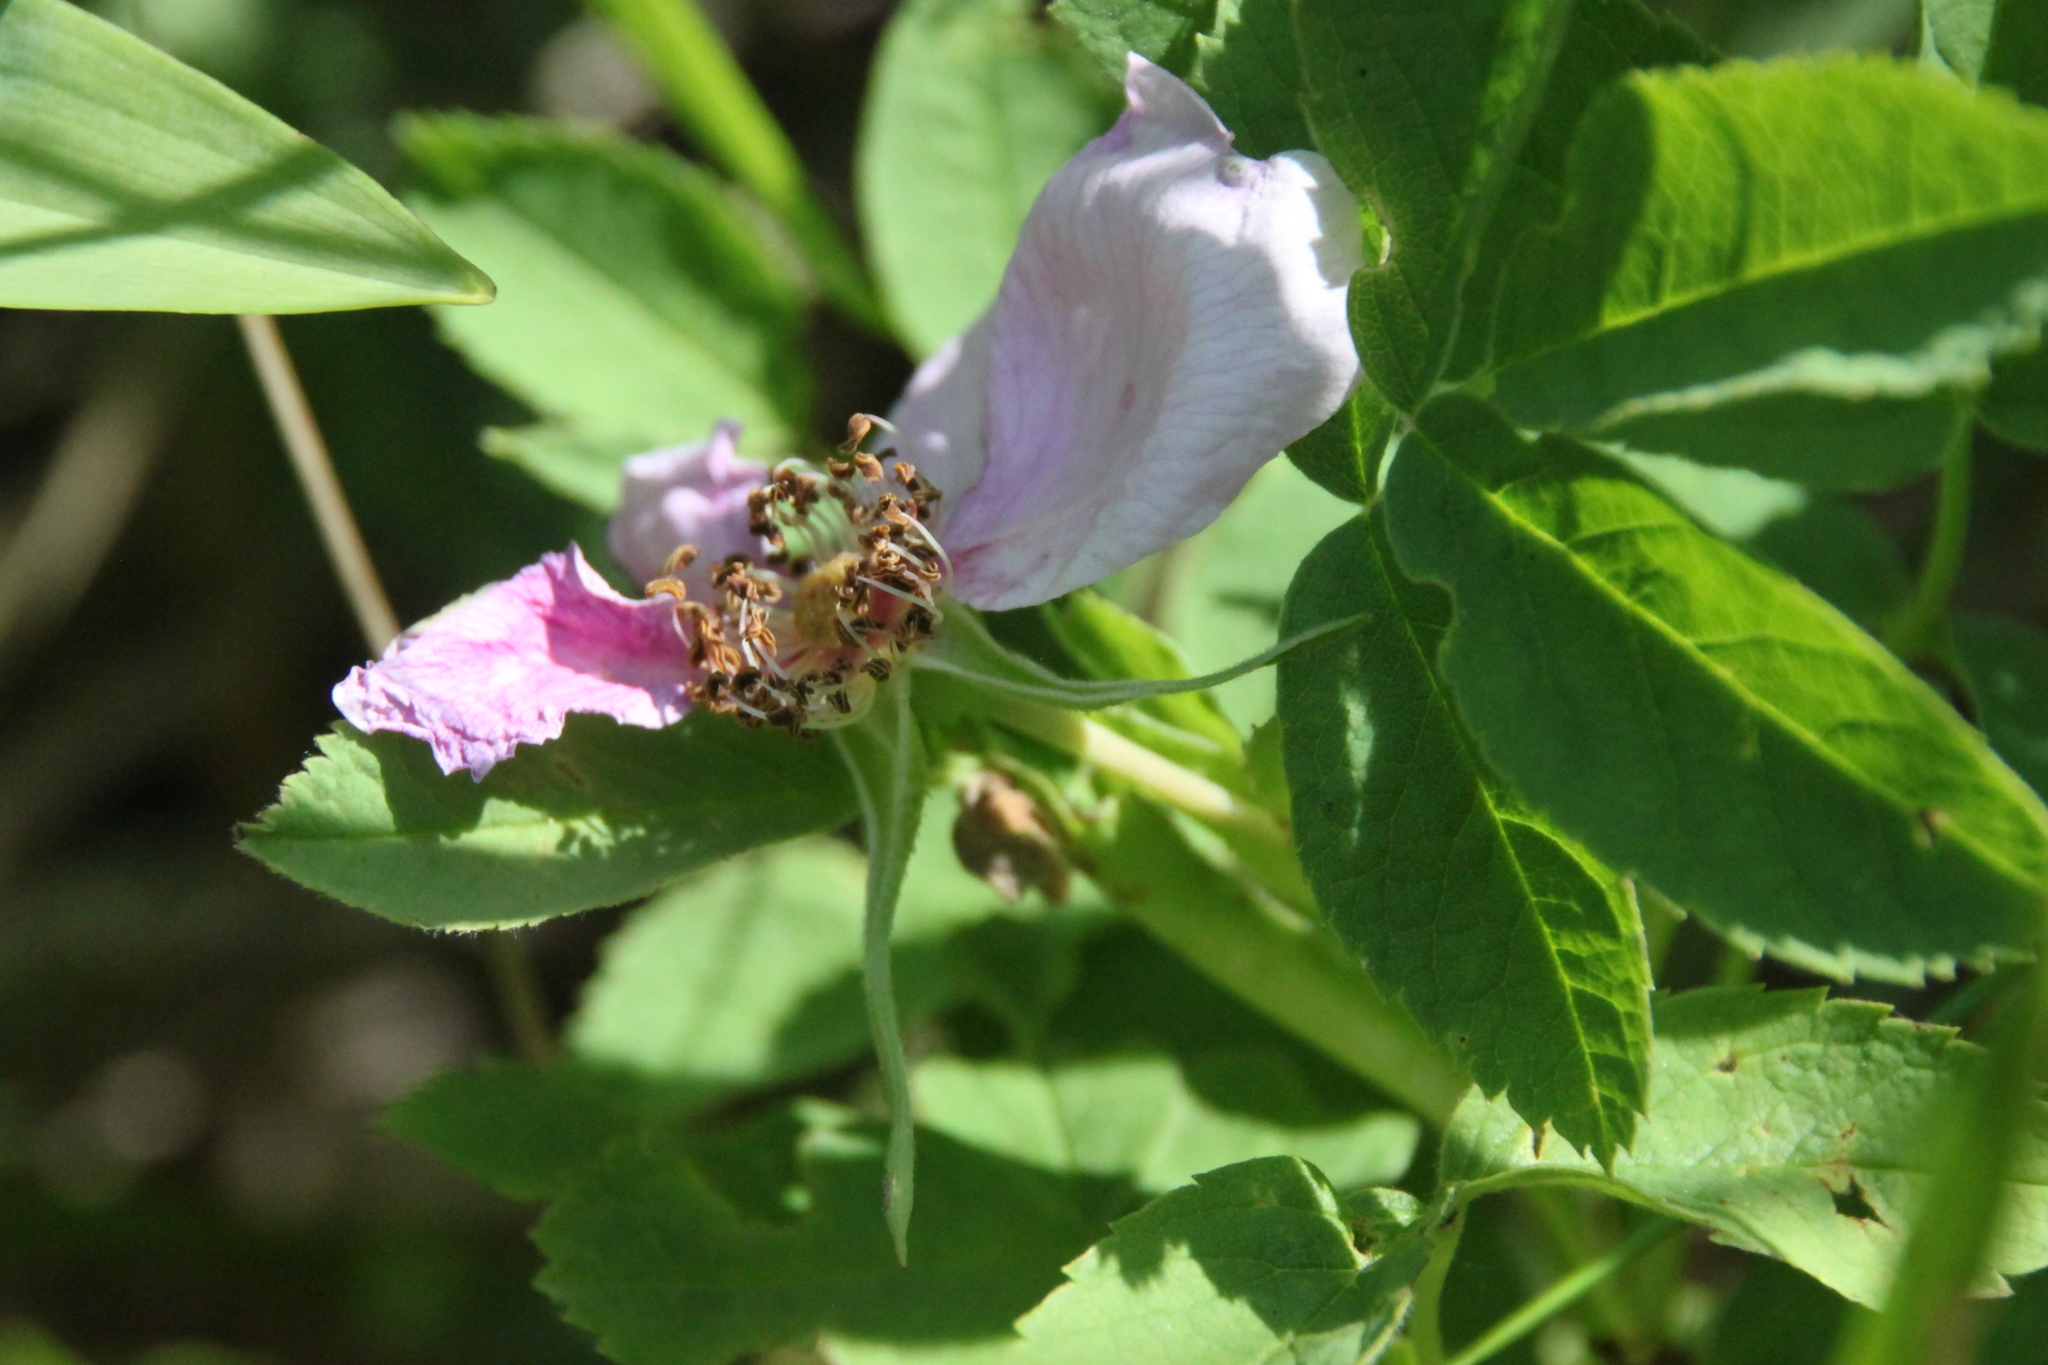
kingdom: Plantae
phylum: Tracheophyta
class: Magnoliopsida
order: Rosales
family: Rosaceae
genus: Rosa
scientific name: Rosa majalis
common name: Cinnamon rose
